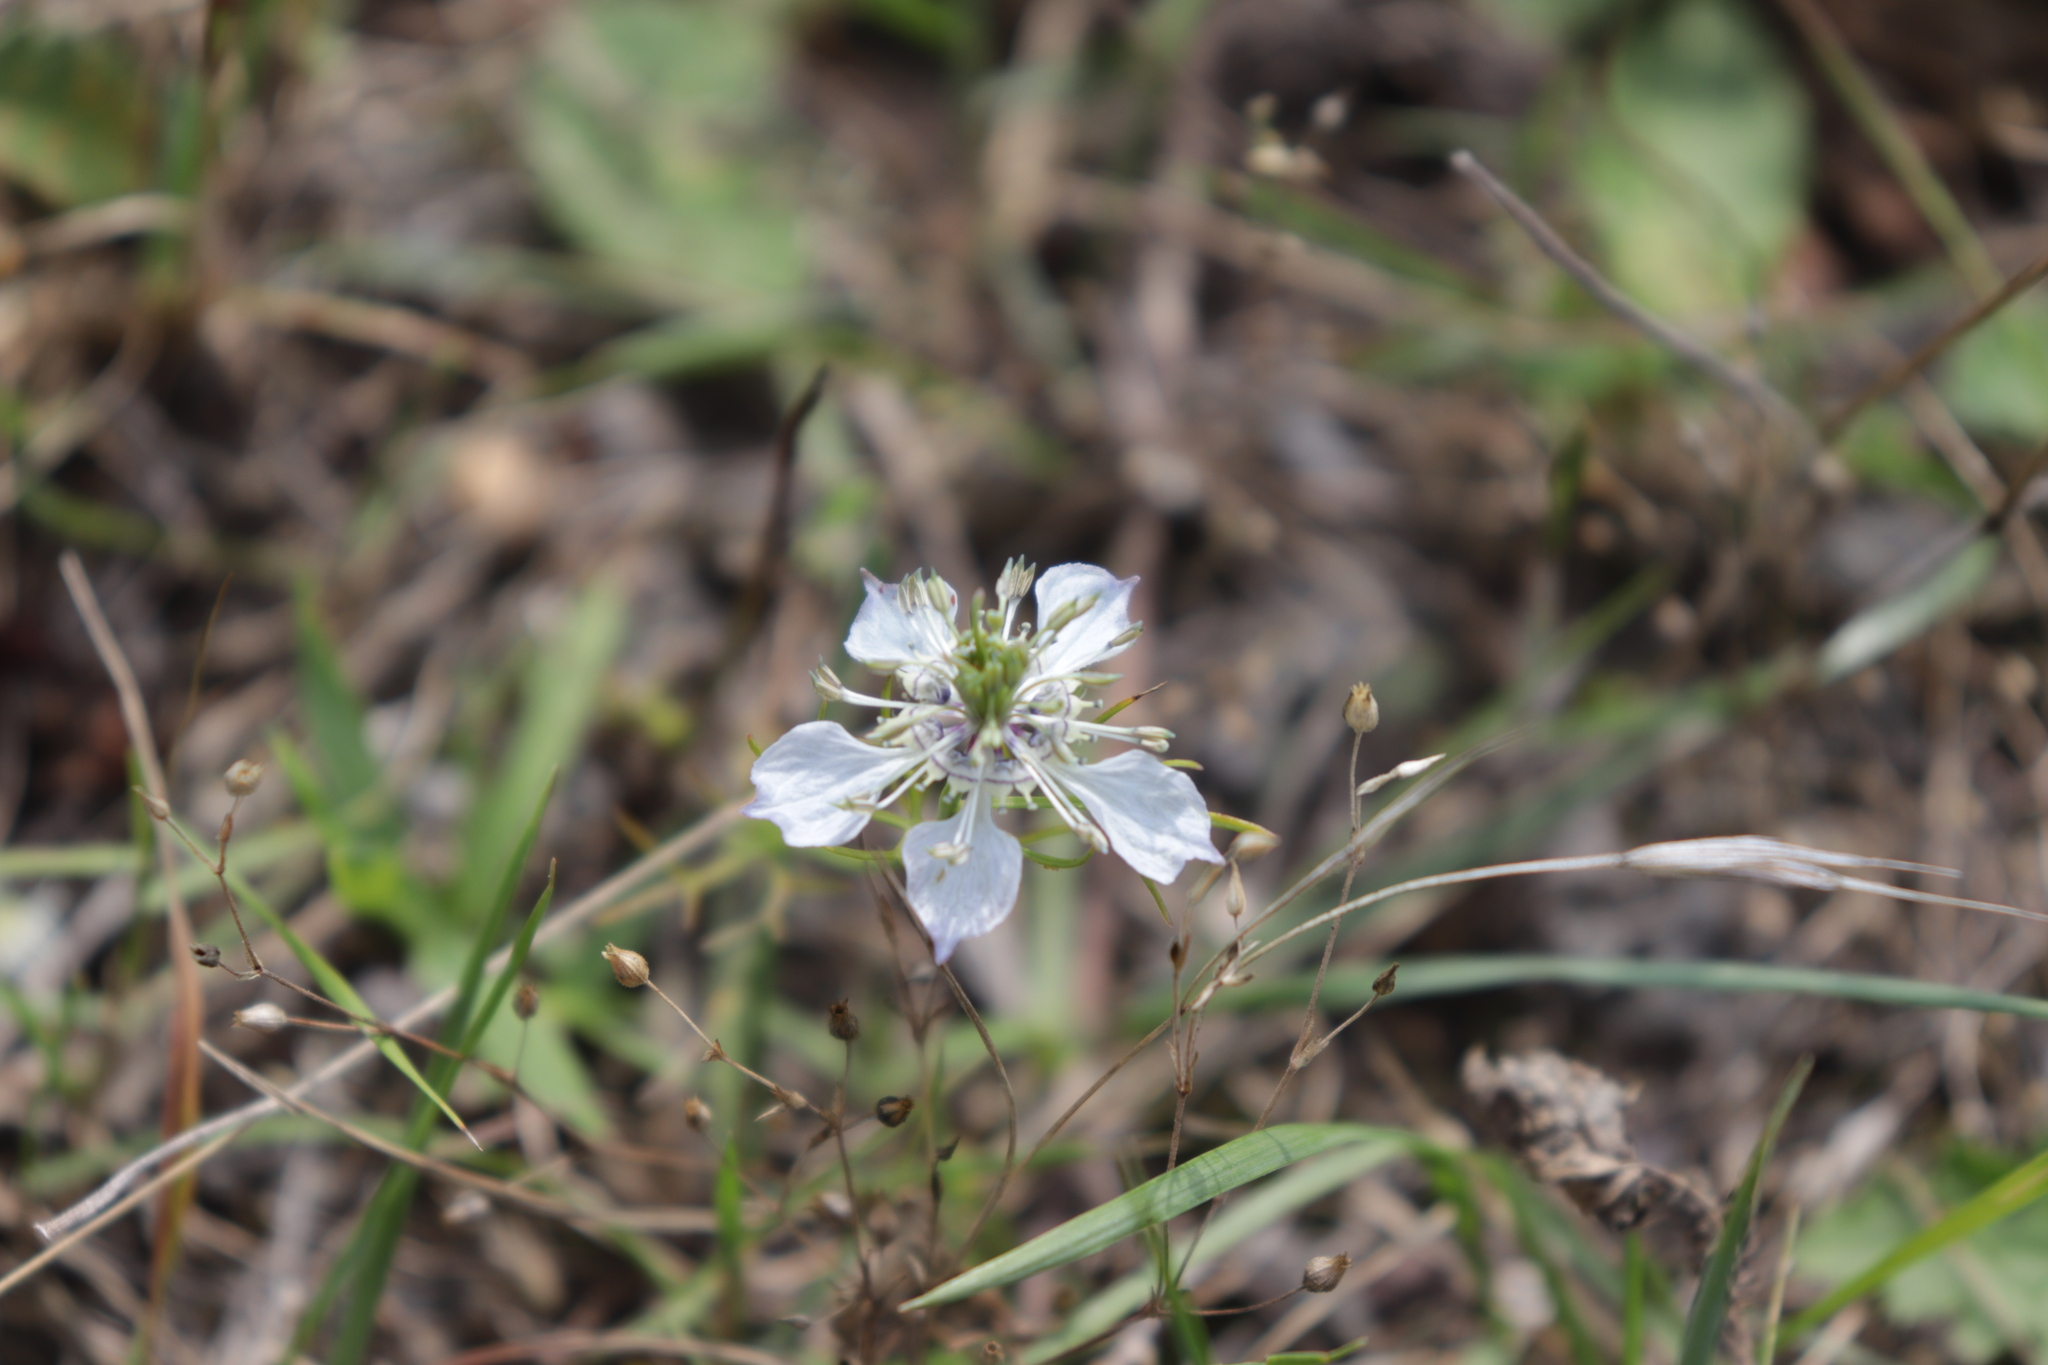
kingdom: Plantae
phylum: Tracheophyta
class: Magnoliopsida
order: Ranunculales
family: Ranunculaceae
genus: Nigella
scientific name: Nigella arvensis
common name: Wild fennel-flower
